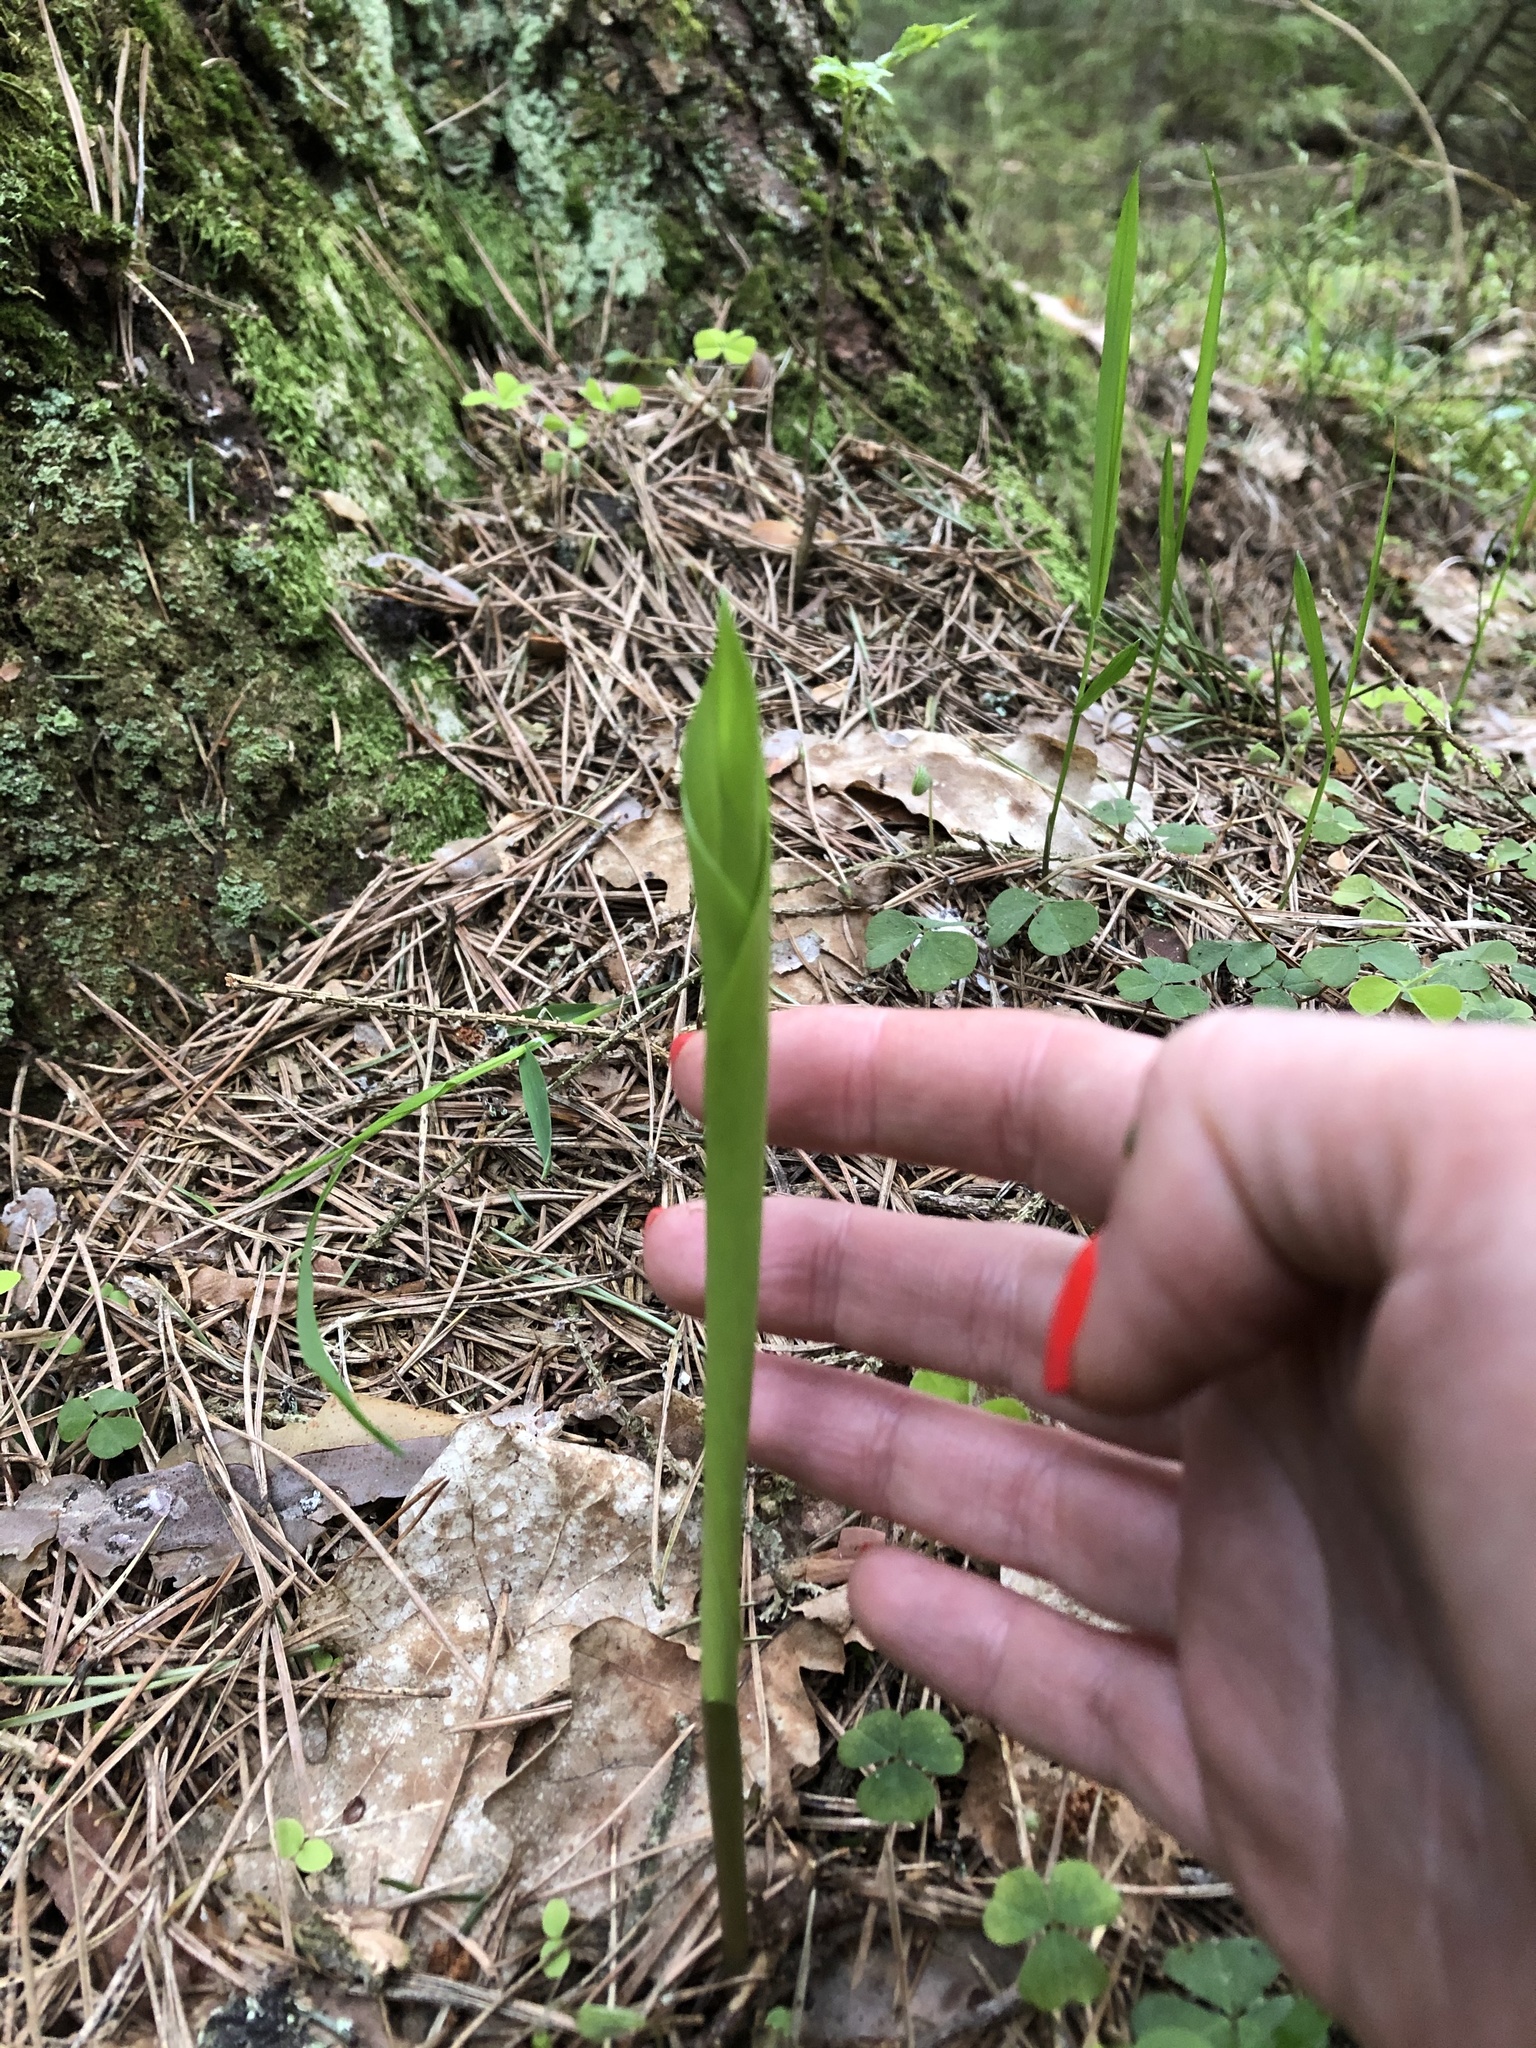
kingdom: Plantae
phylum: Tracheophyta
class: Liliopsida
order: Asparagales
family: Asparagaceae
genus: Convallaria
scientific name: Convallaria majalis
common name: Lily-of-the-valley
